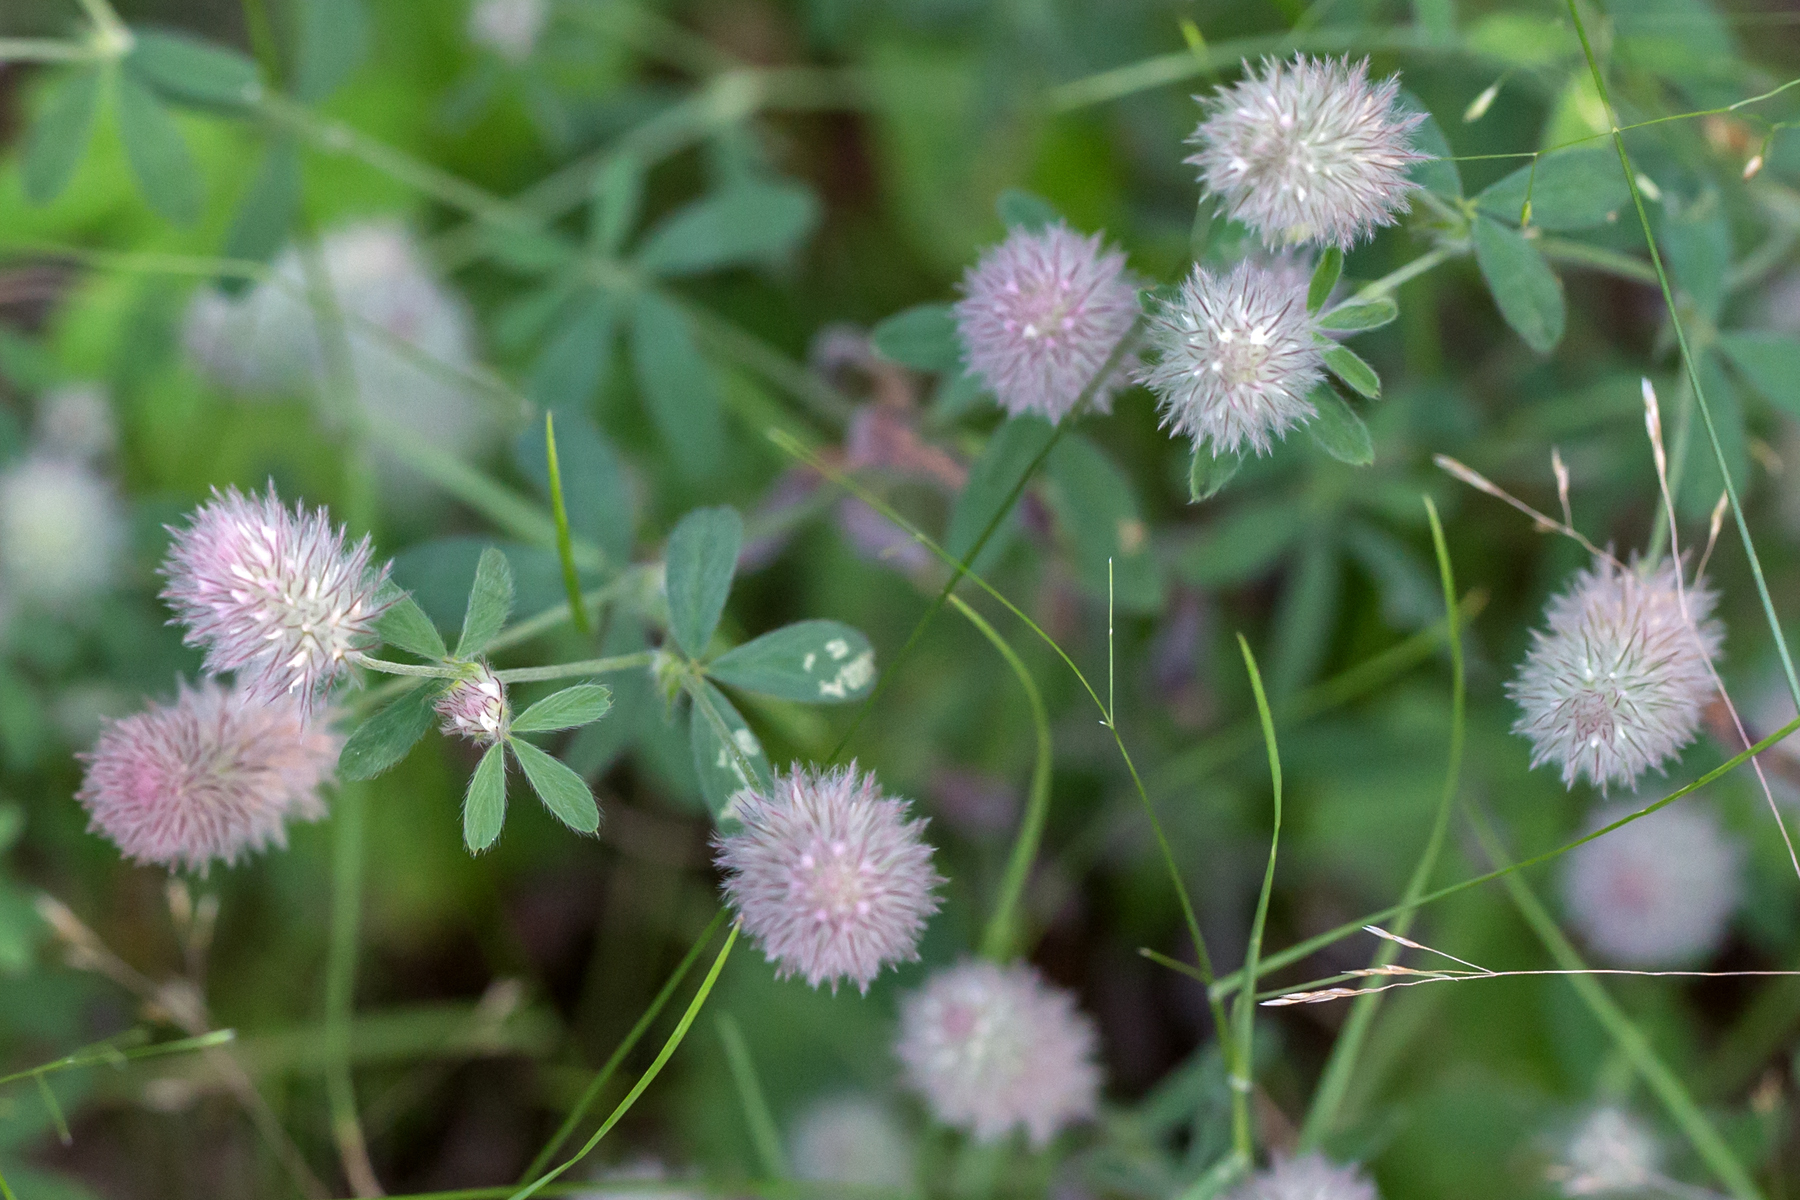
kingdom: Plantae
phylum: Tracheophyta
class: Magnoliopsida
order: Fabales
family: Fabaceae
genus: Trifolium
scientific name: Trifolium arvense
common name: Hare's-foot clover
